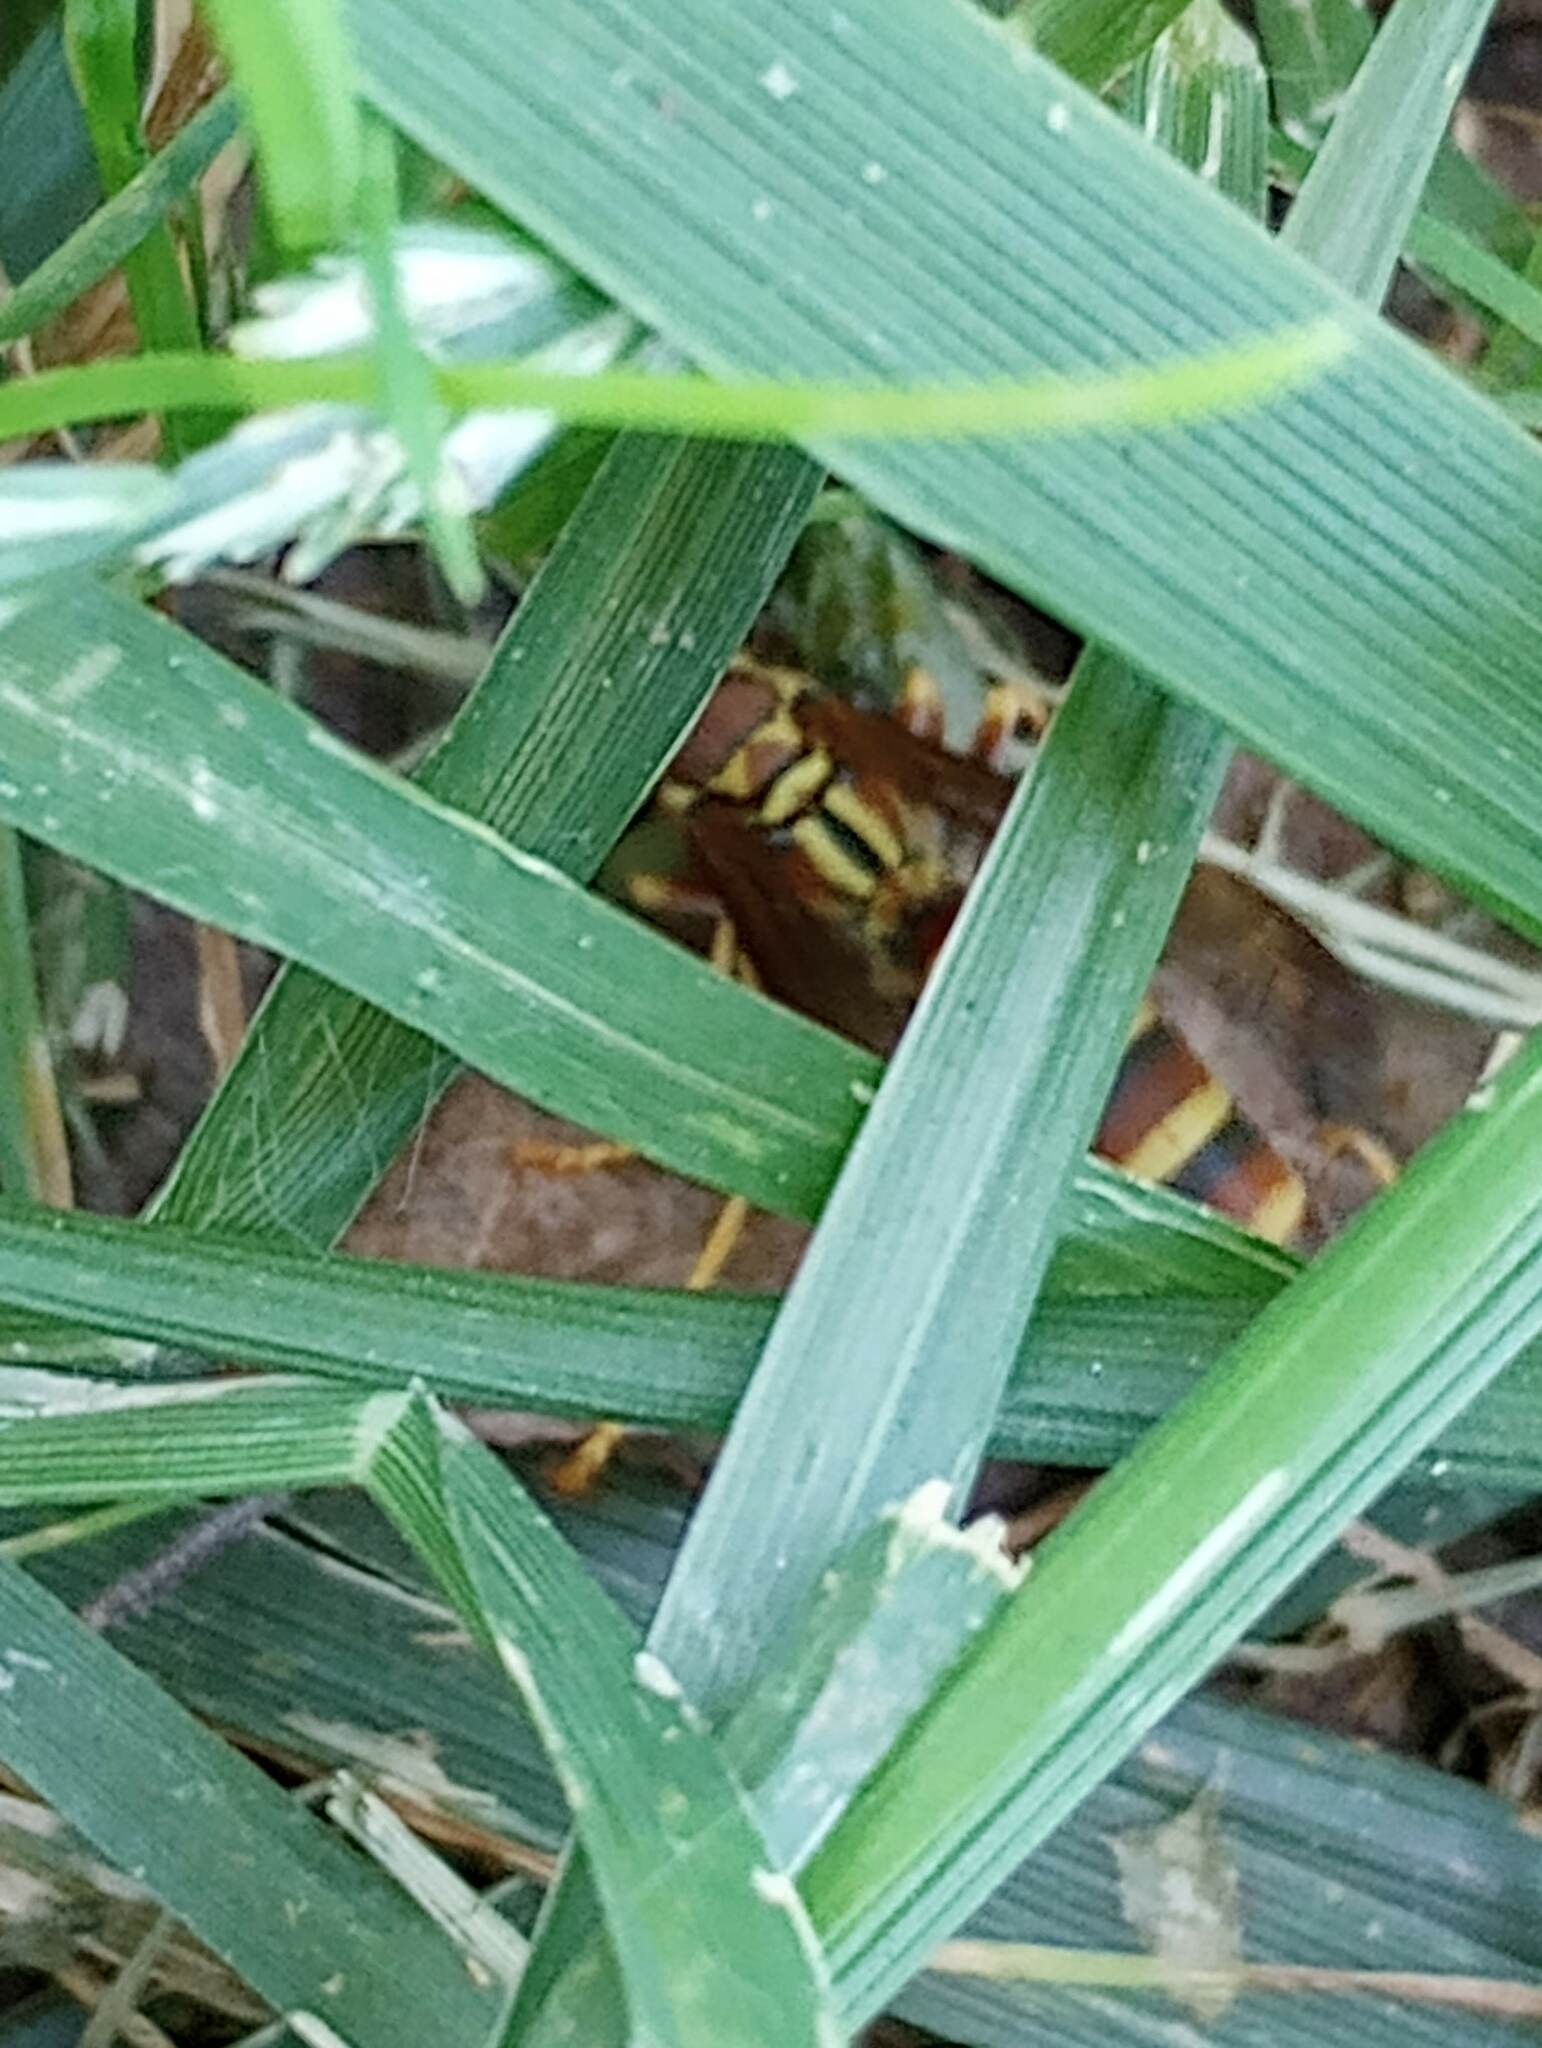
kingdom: Animalia
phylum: Arthropoda
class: Insecta
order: Hymenoptera
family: Eumenidae
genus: Polistes
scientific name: Polistes
